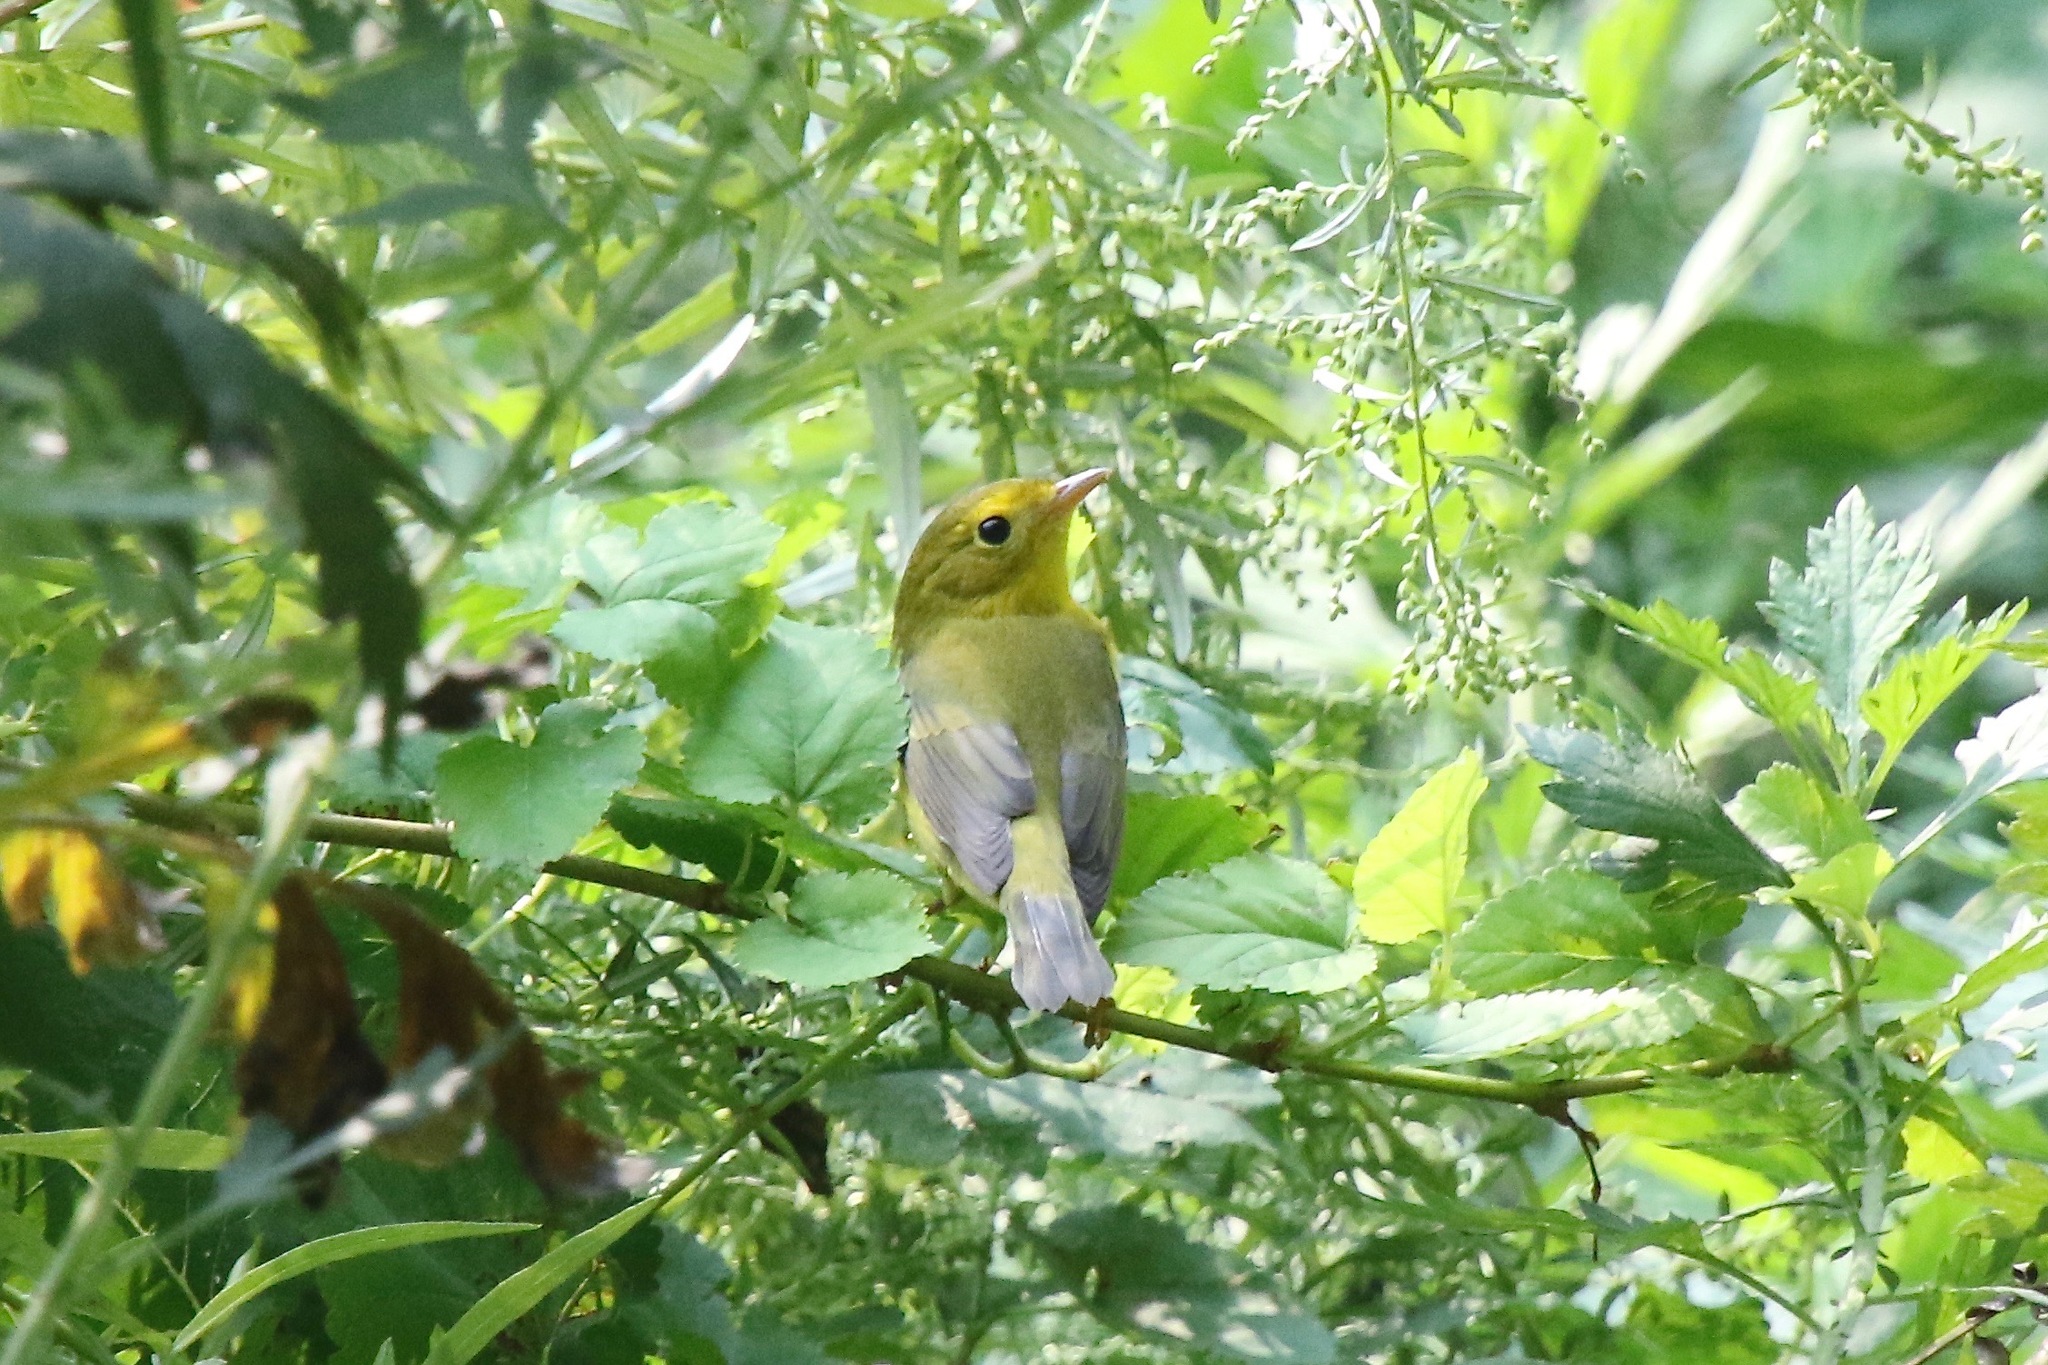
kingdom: Animalia
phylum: Chordata
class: Aves
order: Passeriformes
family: Parulidae
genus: Cardellina
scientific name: Cardellina pusilla
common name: Wilson's warbler
